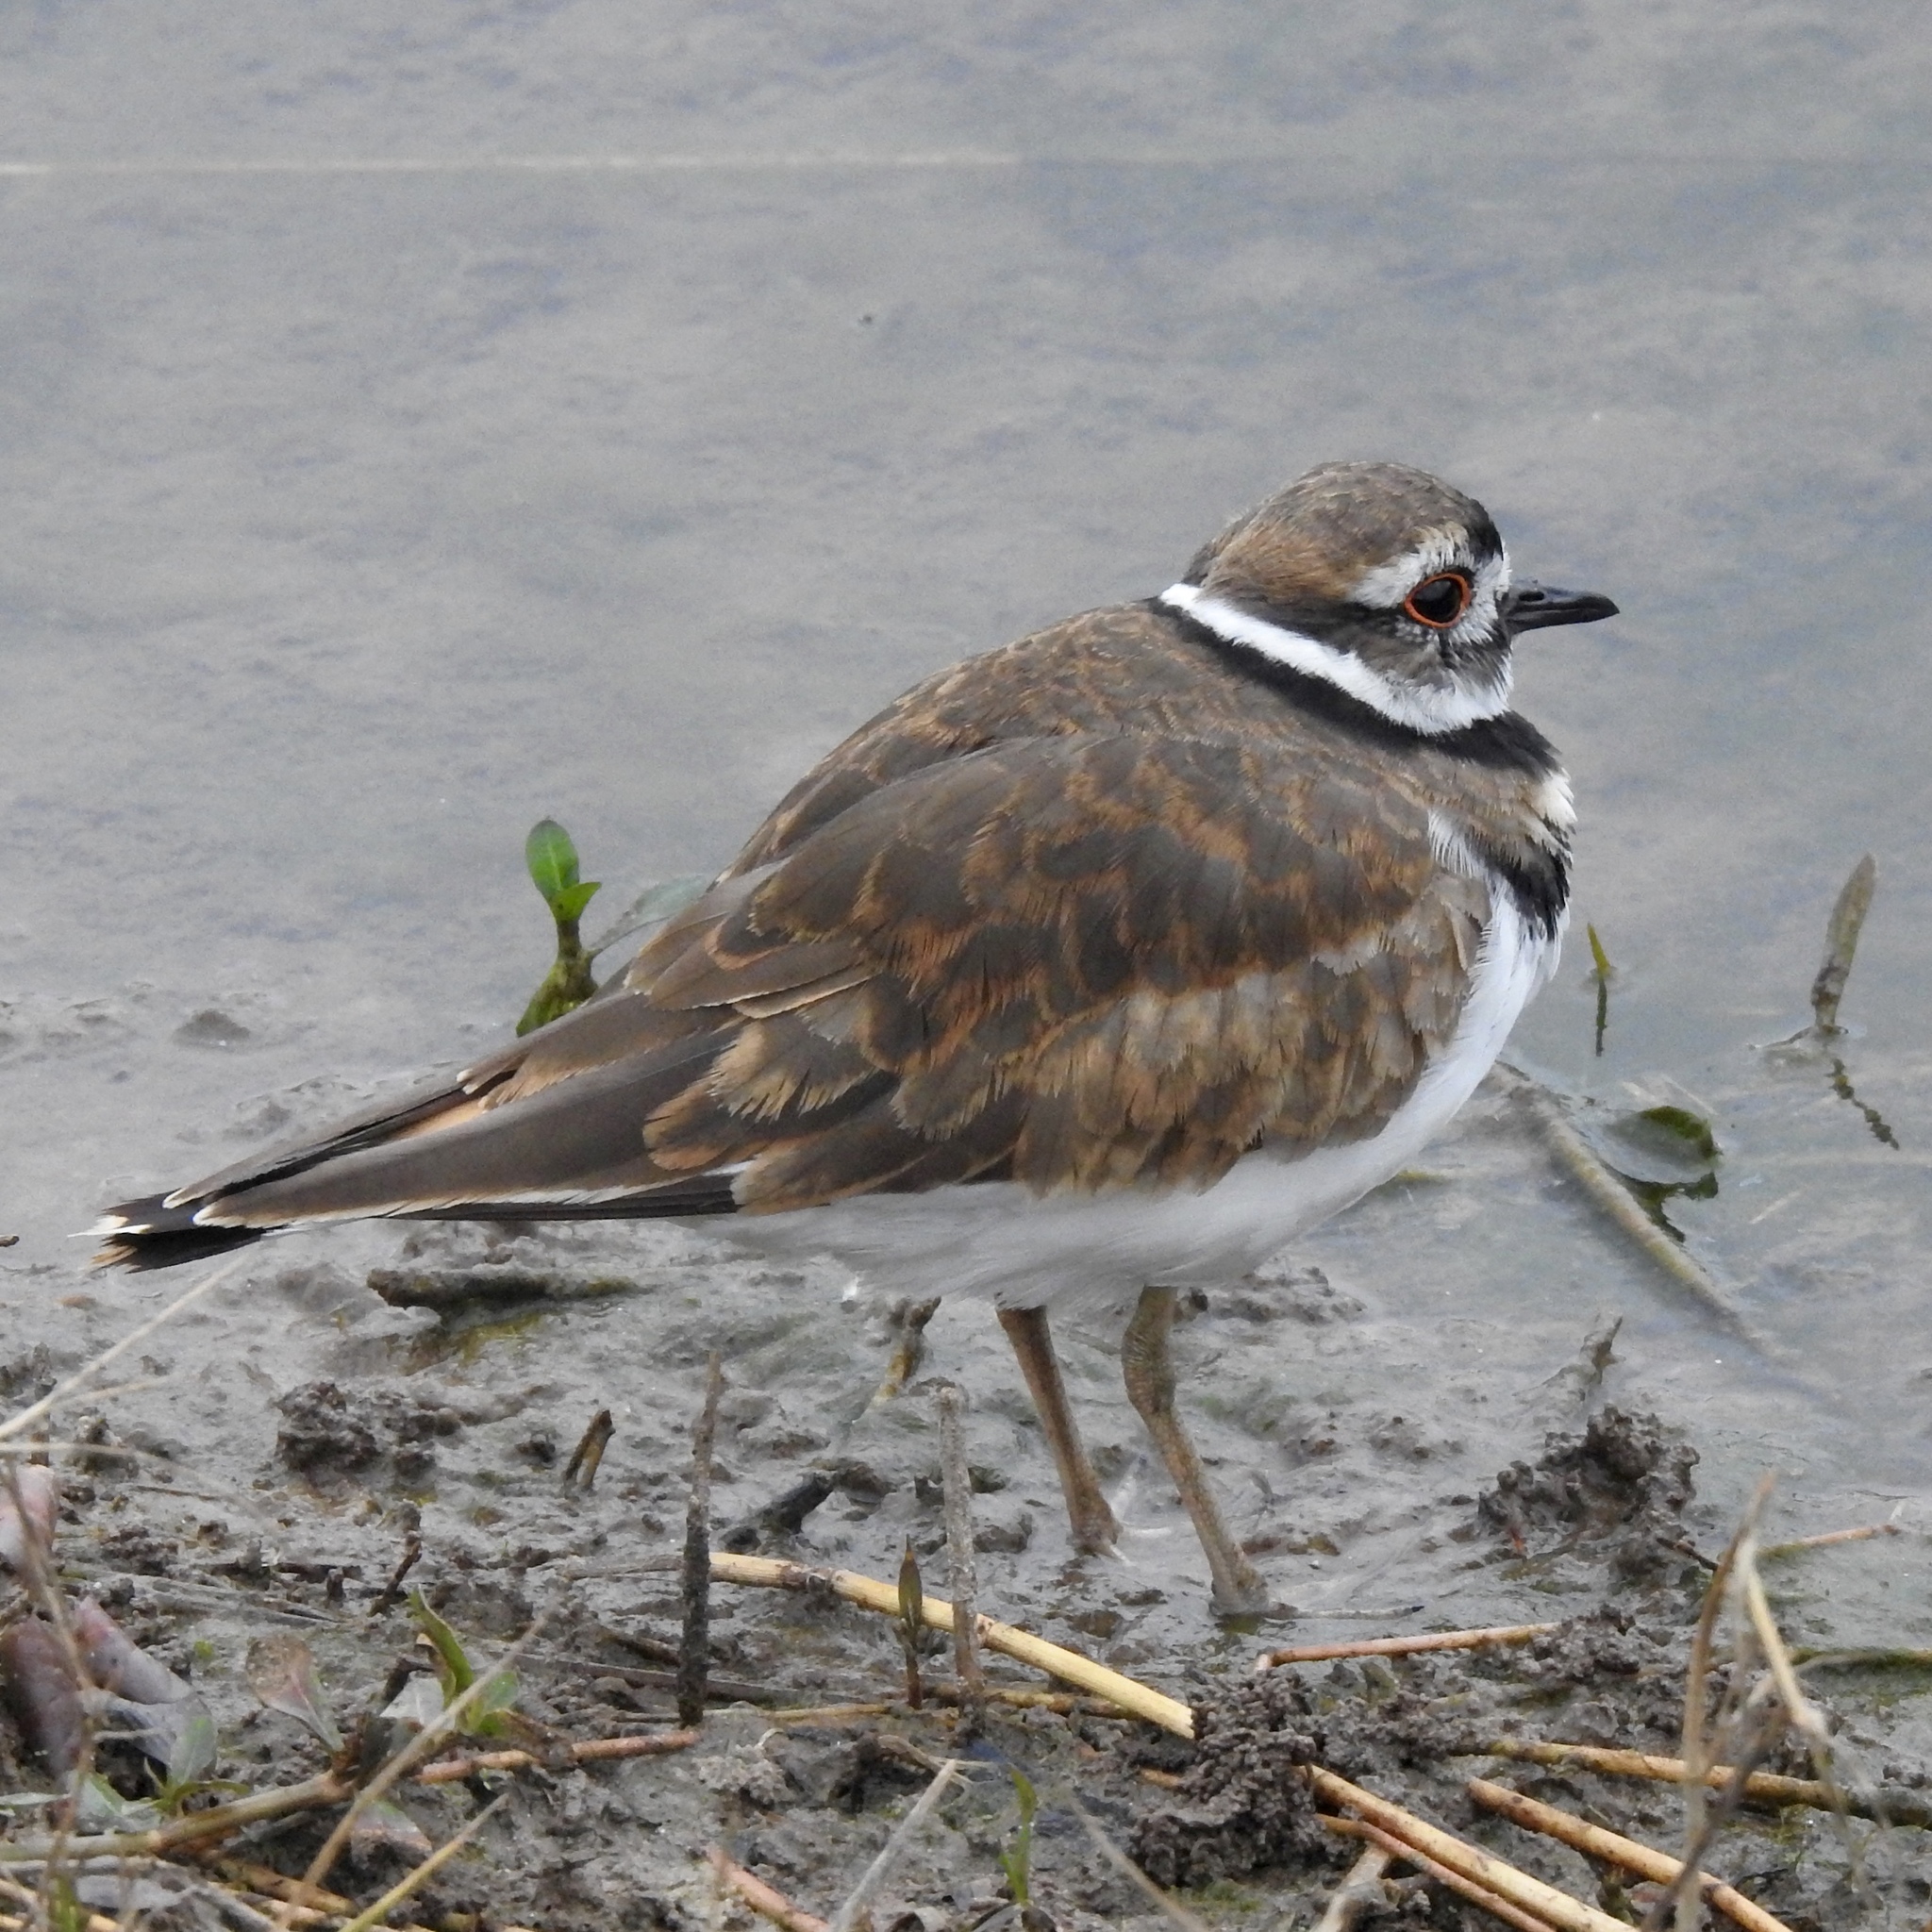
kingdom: Animalia
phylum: Chordata
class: Aves
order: Charadriiformes
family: Charadriidae
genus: Charadrius
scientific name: Charadrius vociferus
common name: Killdeer
